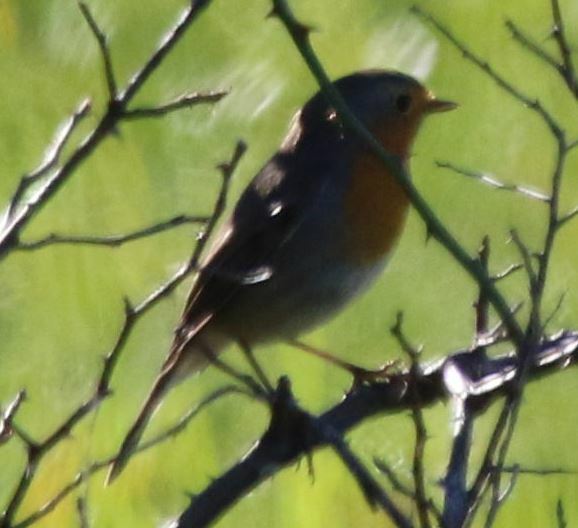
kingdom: Animalia
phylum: Chordata
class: Aves
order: Passeriformes
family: Muscicapidae
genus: Erithacus
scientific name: Erithacus rubecula
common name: European robin
